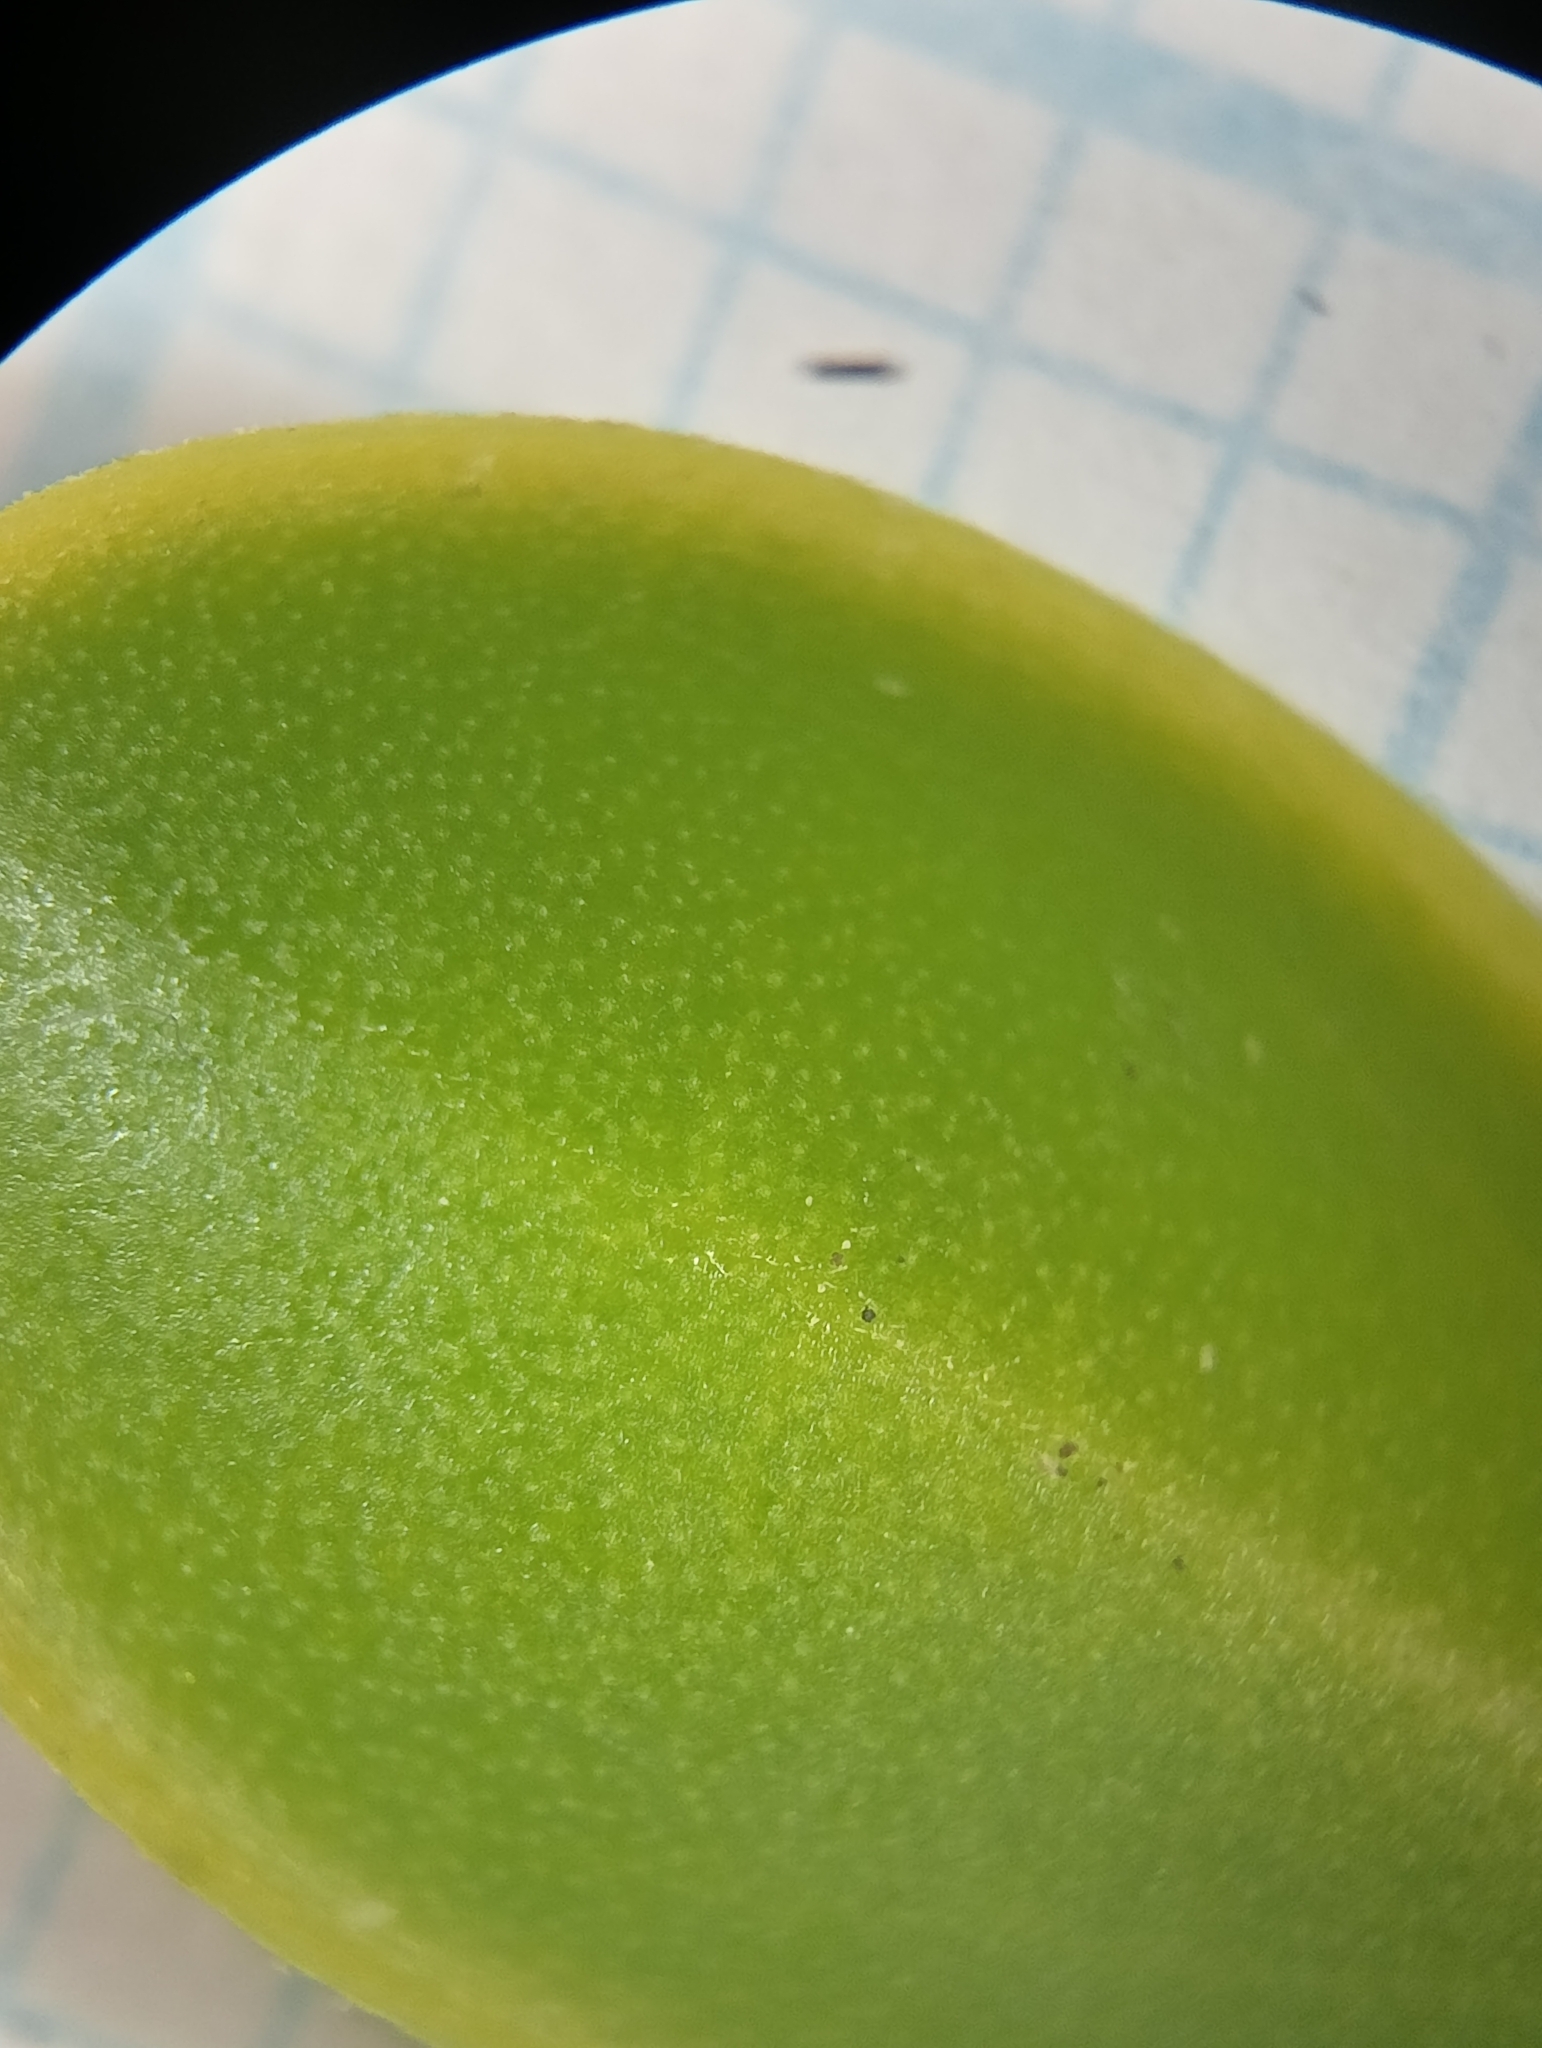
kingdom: Plantae
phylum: Tracheophyta
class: Magnoliopsida
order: Lamiales
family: Plantaginaceae
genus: Veronica
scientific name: Veronica brachysiphon
